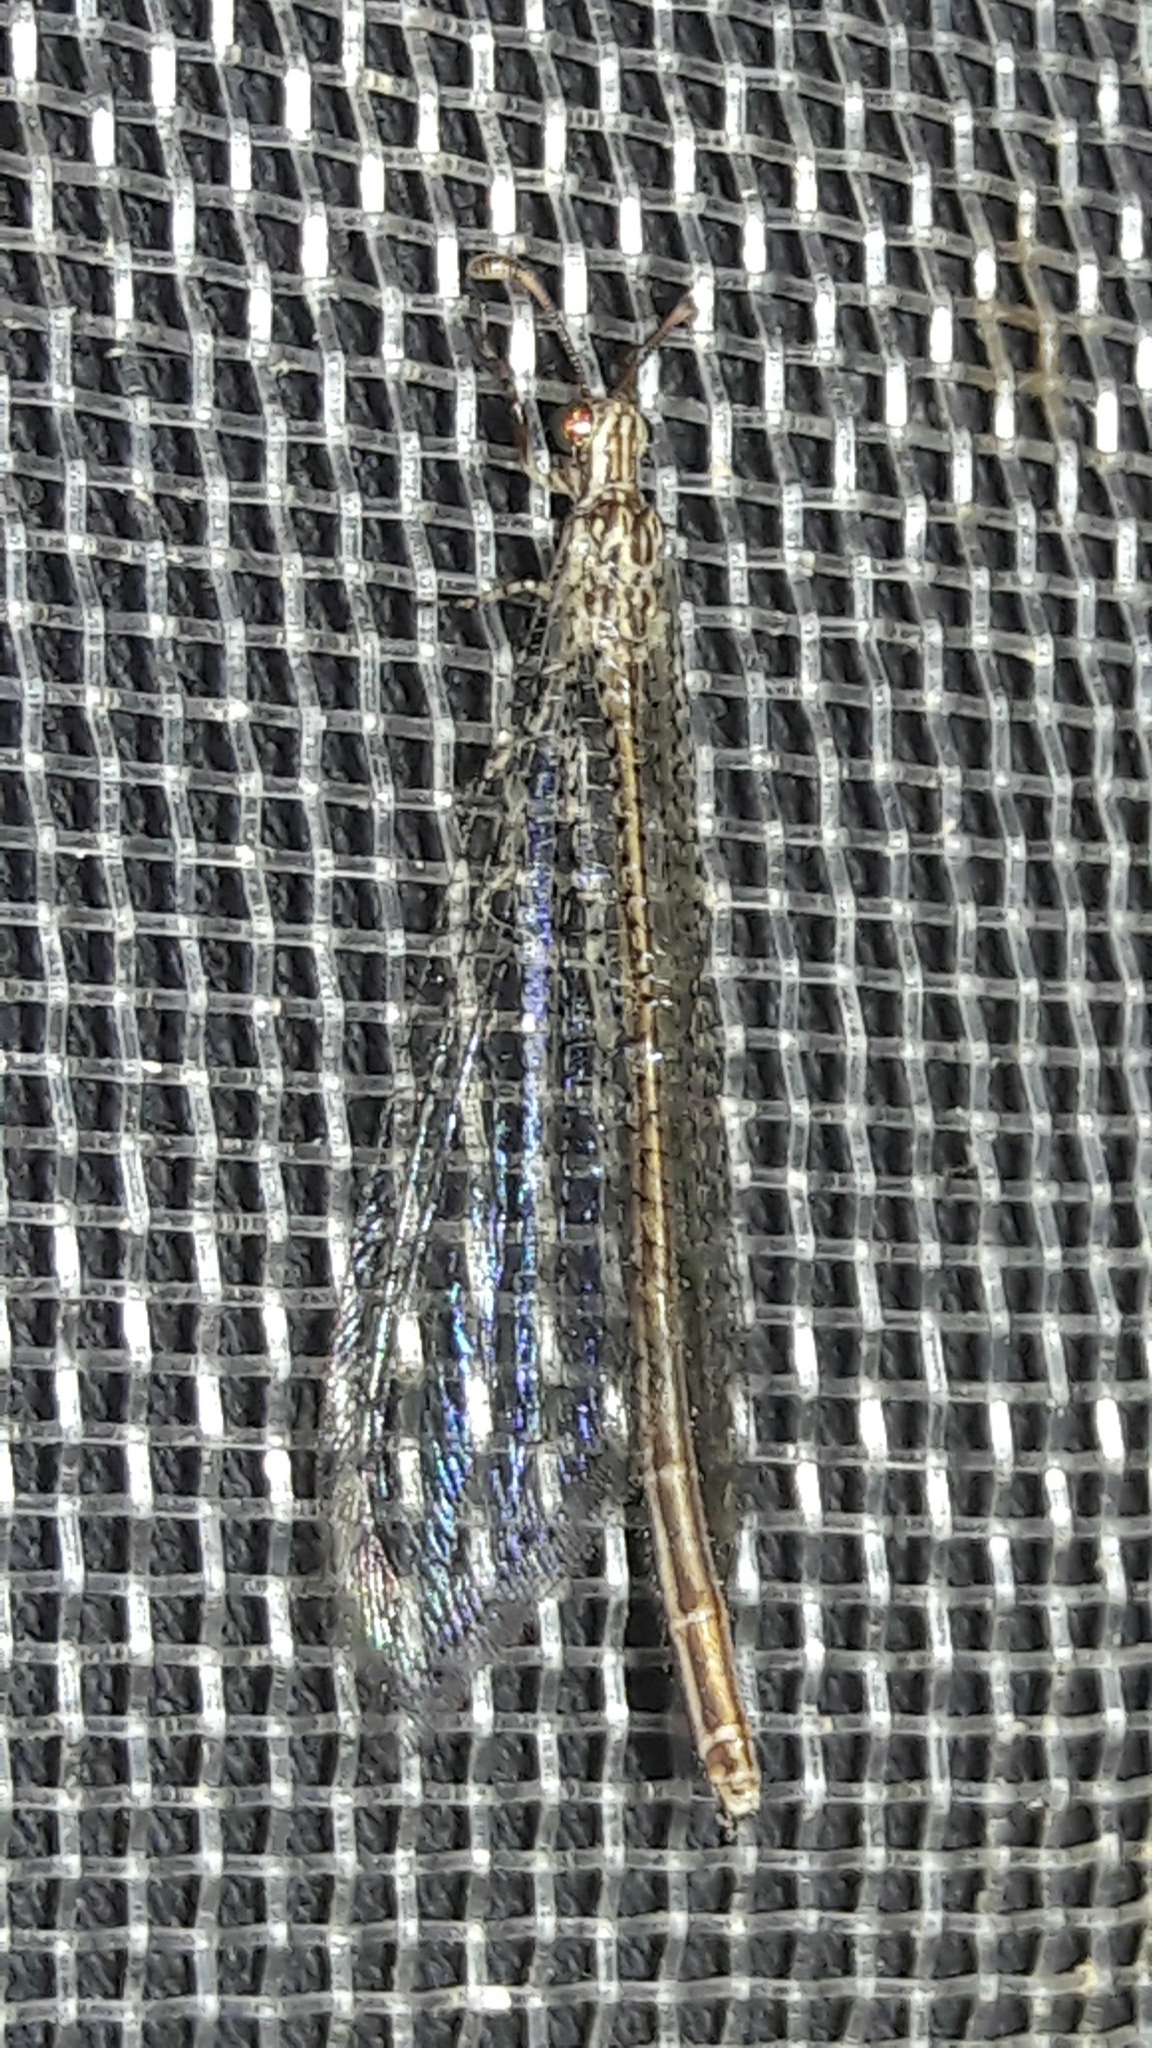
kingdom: Animalia
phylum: Arthropoda
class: Insecta
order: Neuroptera
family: Myrmeleontidae
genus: Argentoleon
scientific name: Argentoleon irrigatus
